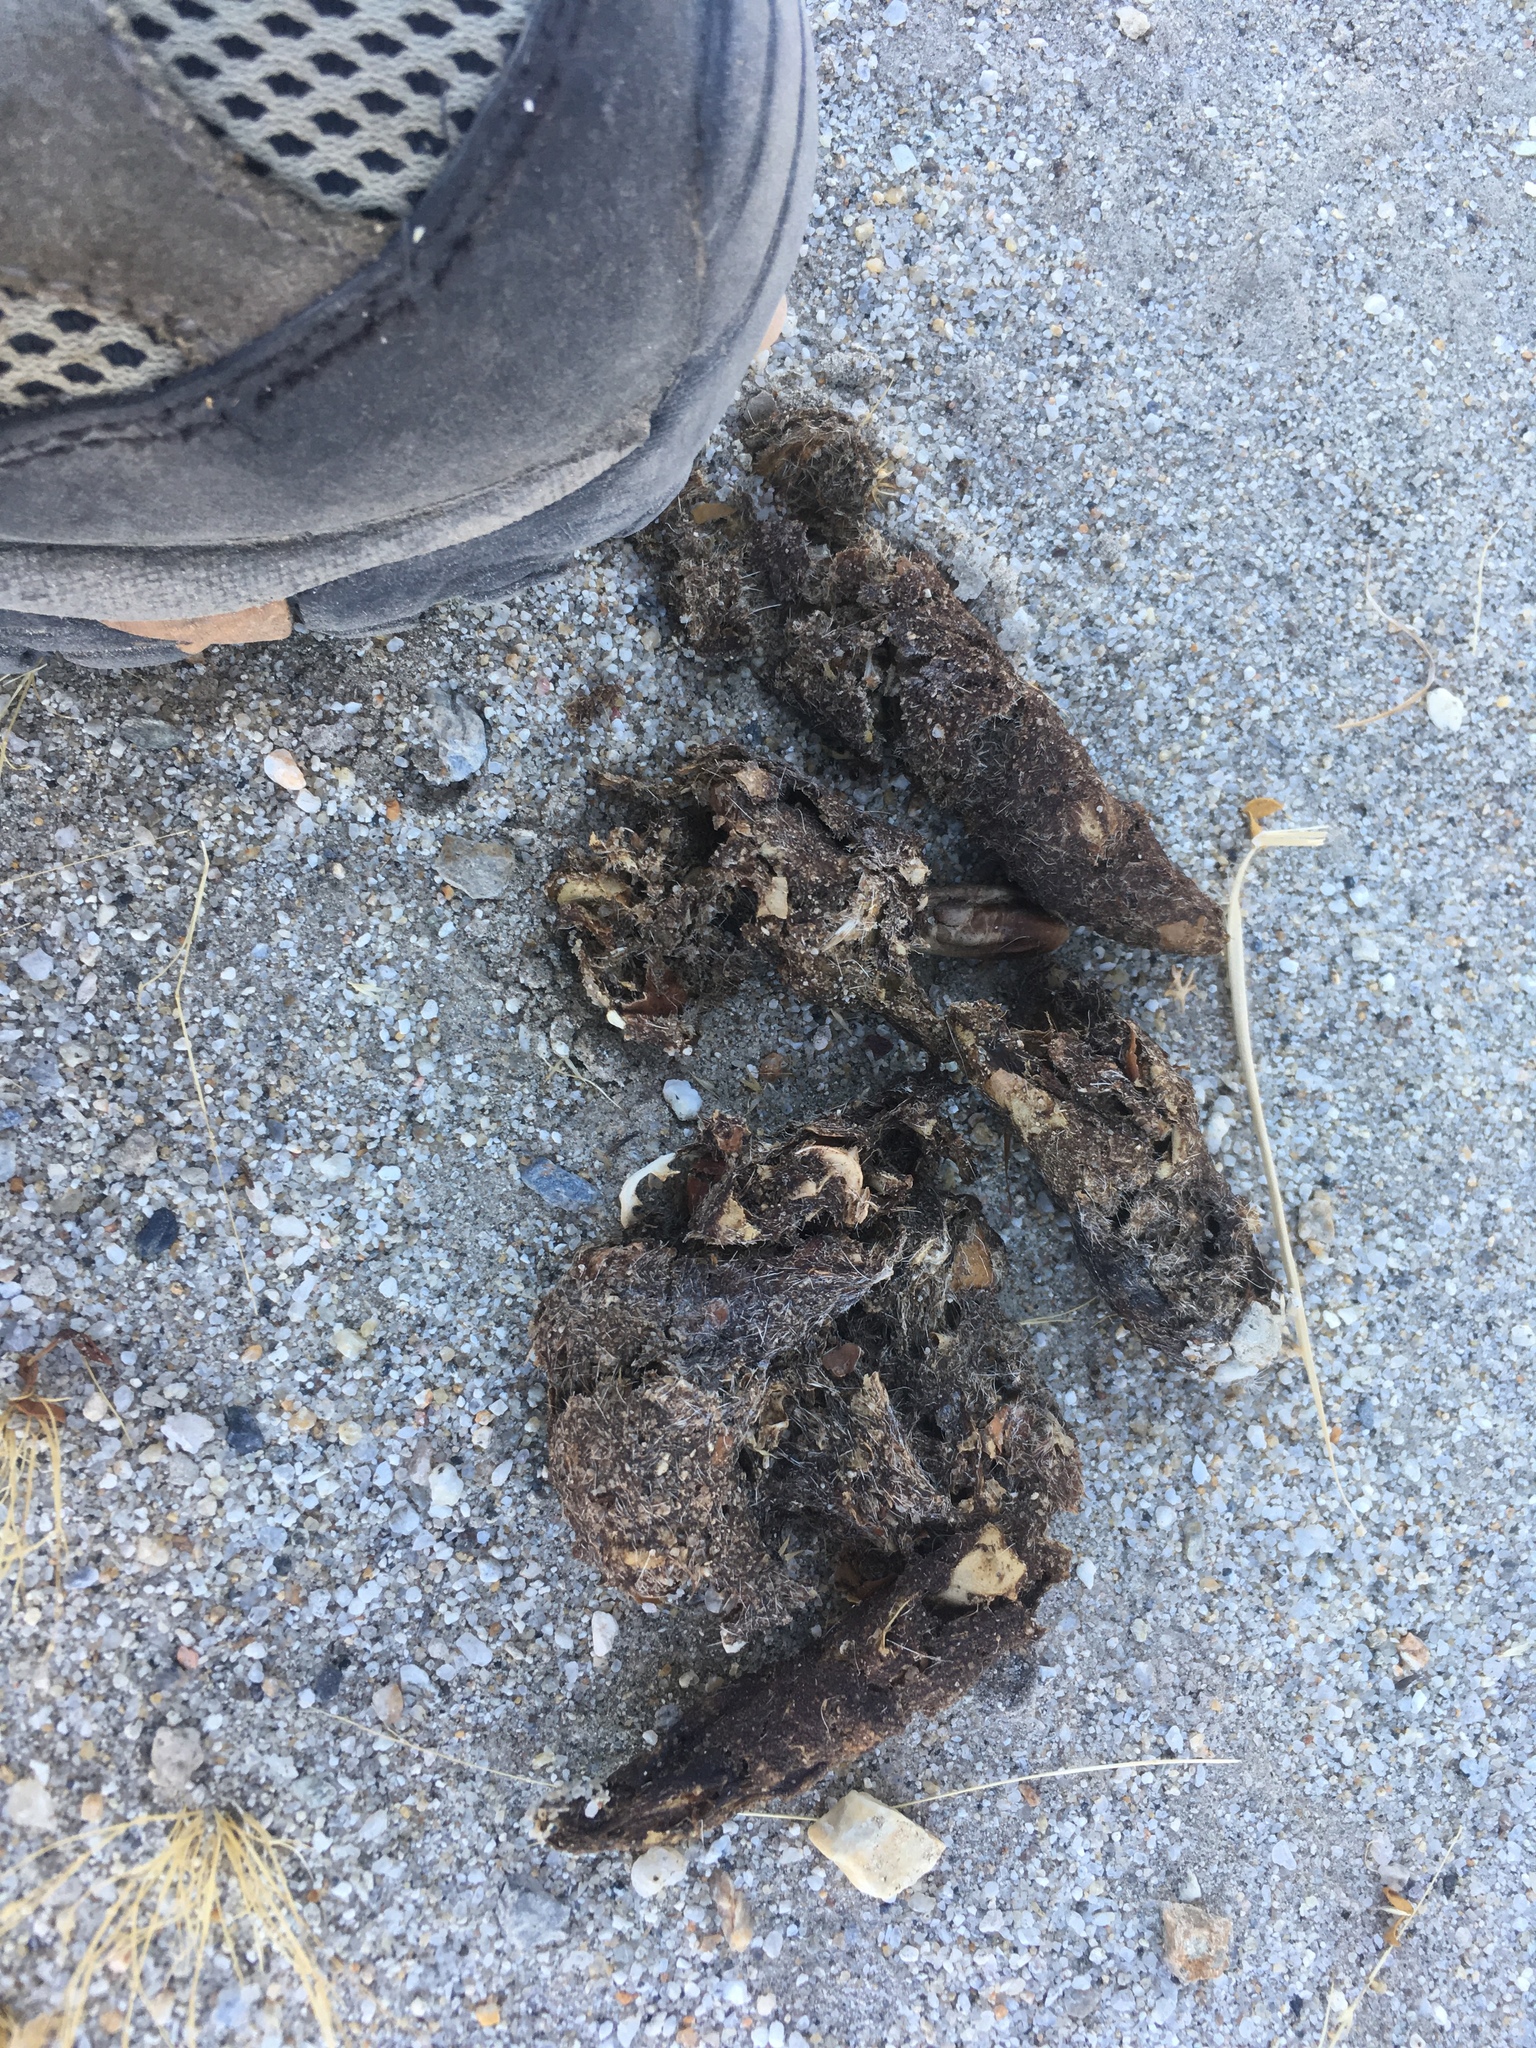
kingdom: Animalia
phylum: Chordata
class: Mammalia
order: Carnivora
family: Canidae
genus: Canis
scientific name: Canis latrans
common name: Coyote
